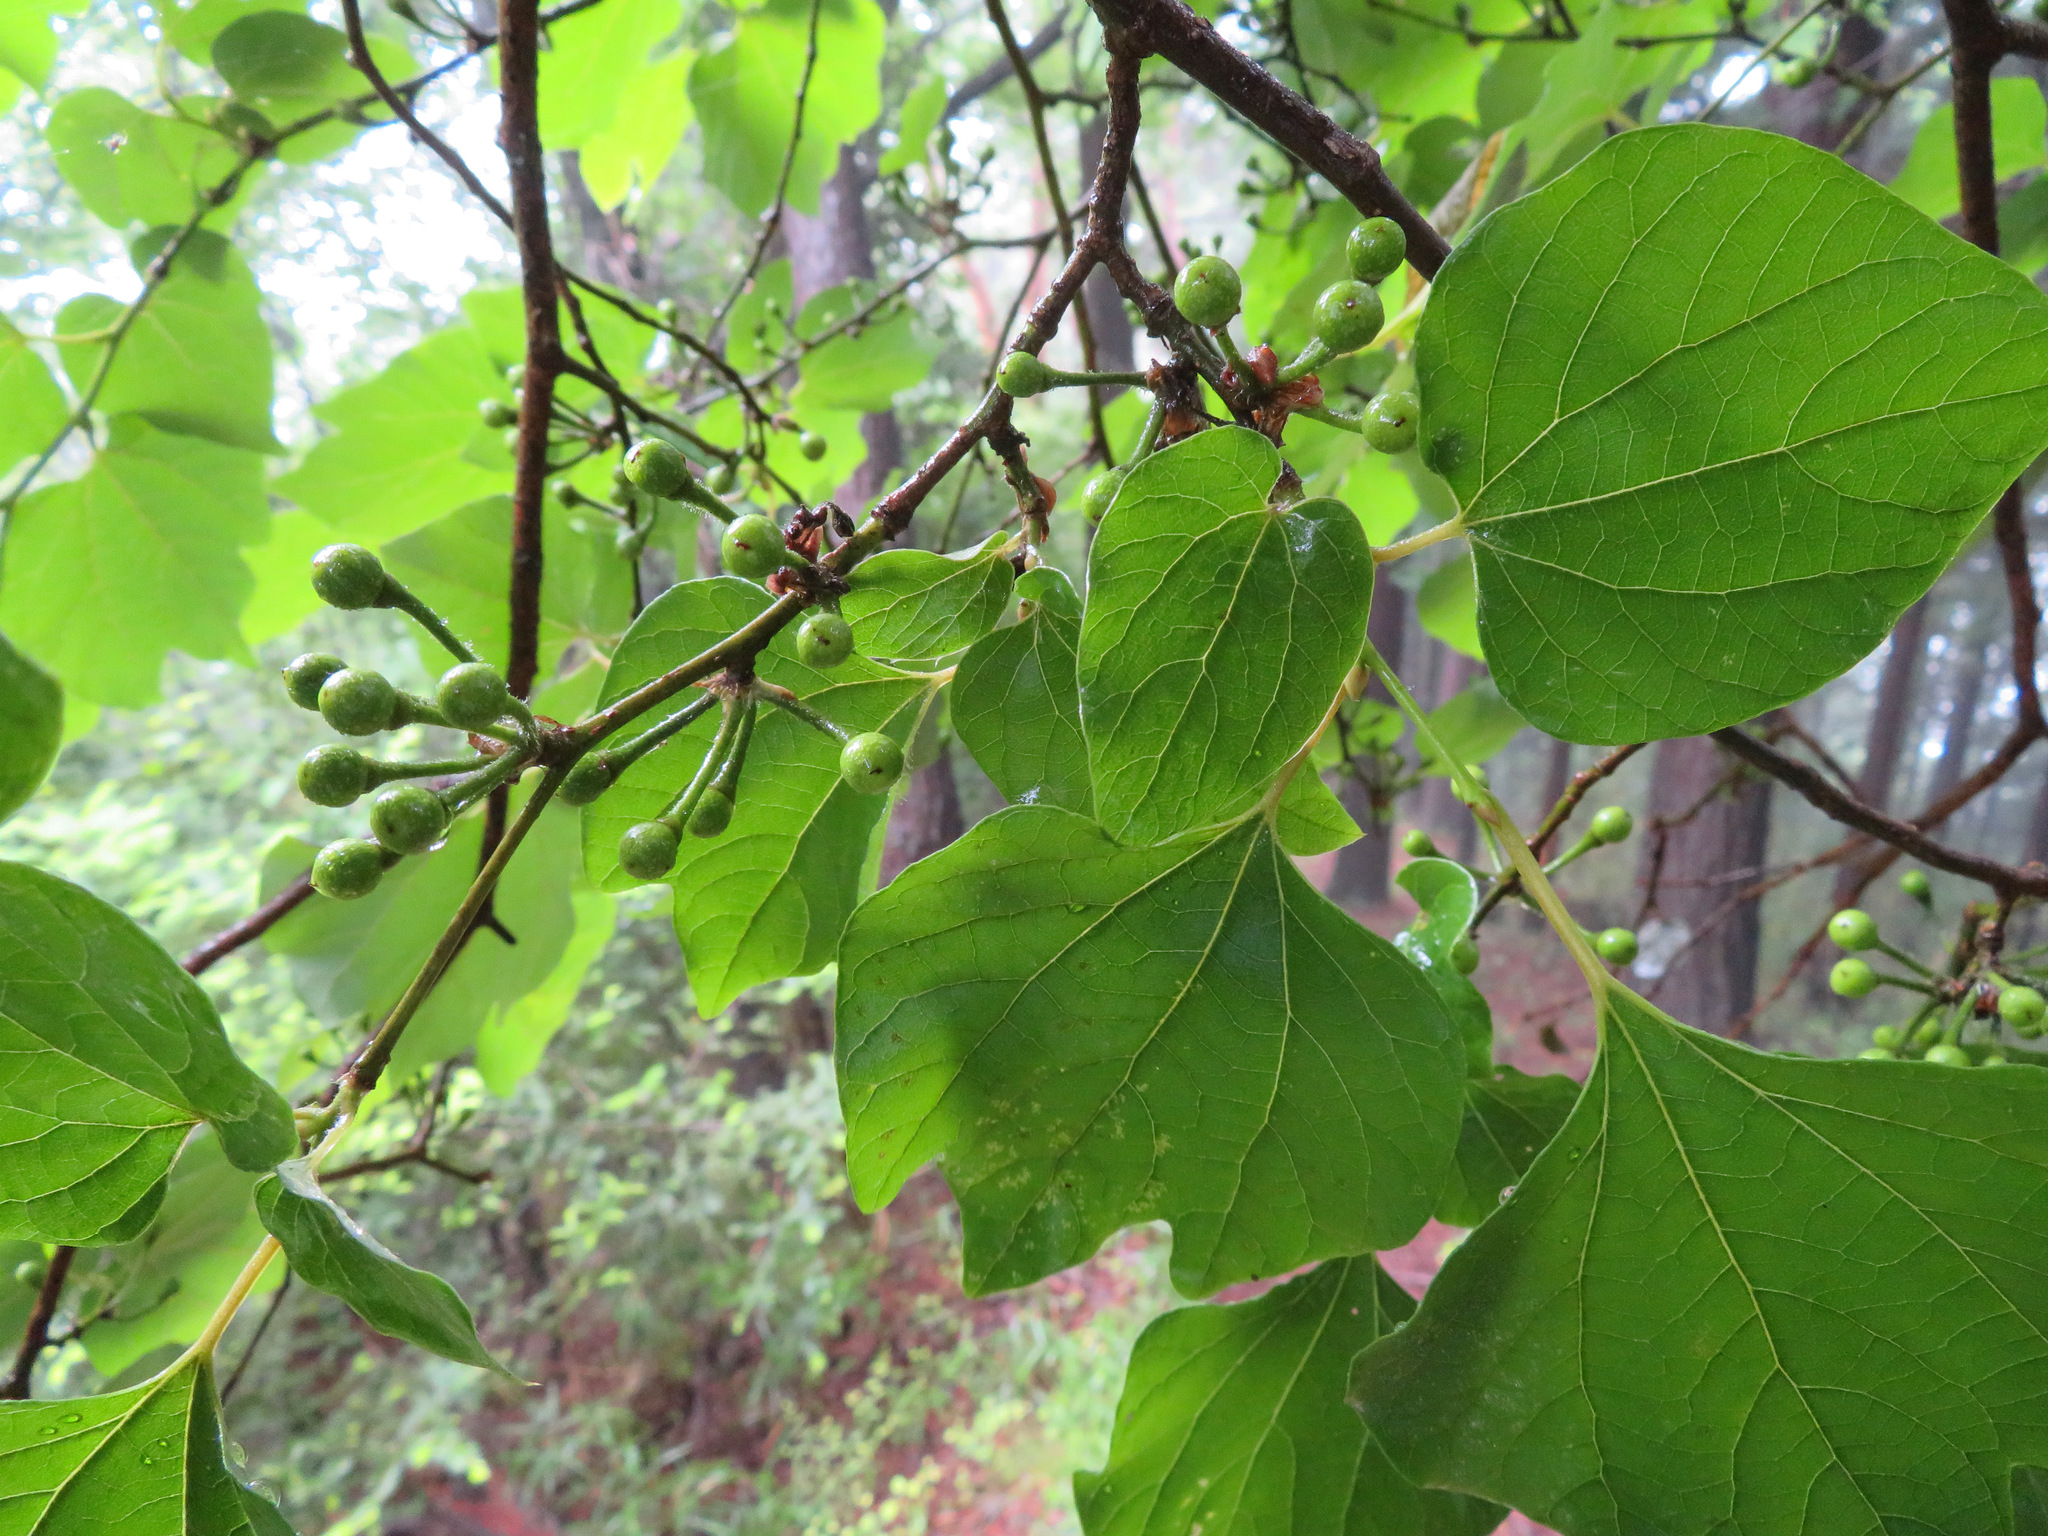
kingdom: Plantae
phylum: Tracheophyta
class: Magnoliopsida
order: Laurales
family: Lauraceae
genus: Lindera
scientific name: Lindera obtusiloba
